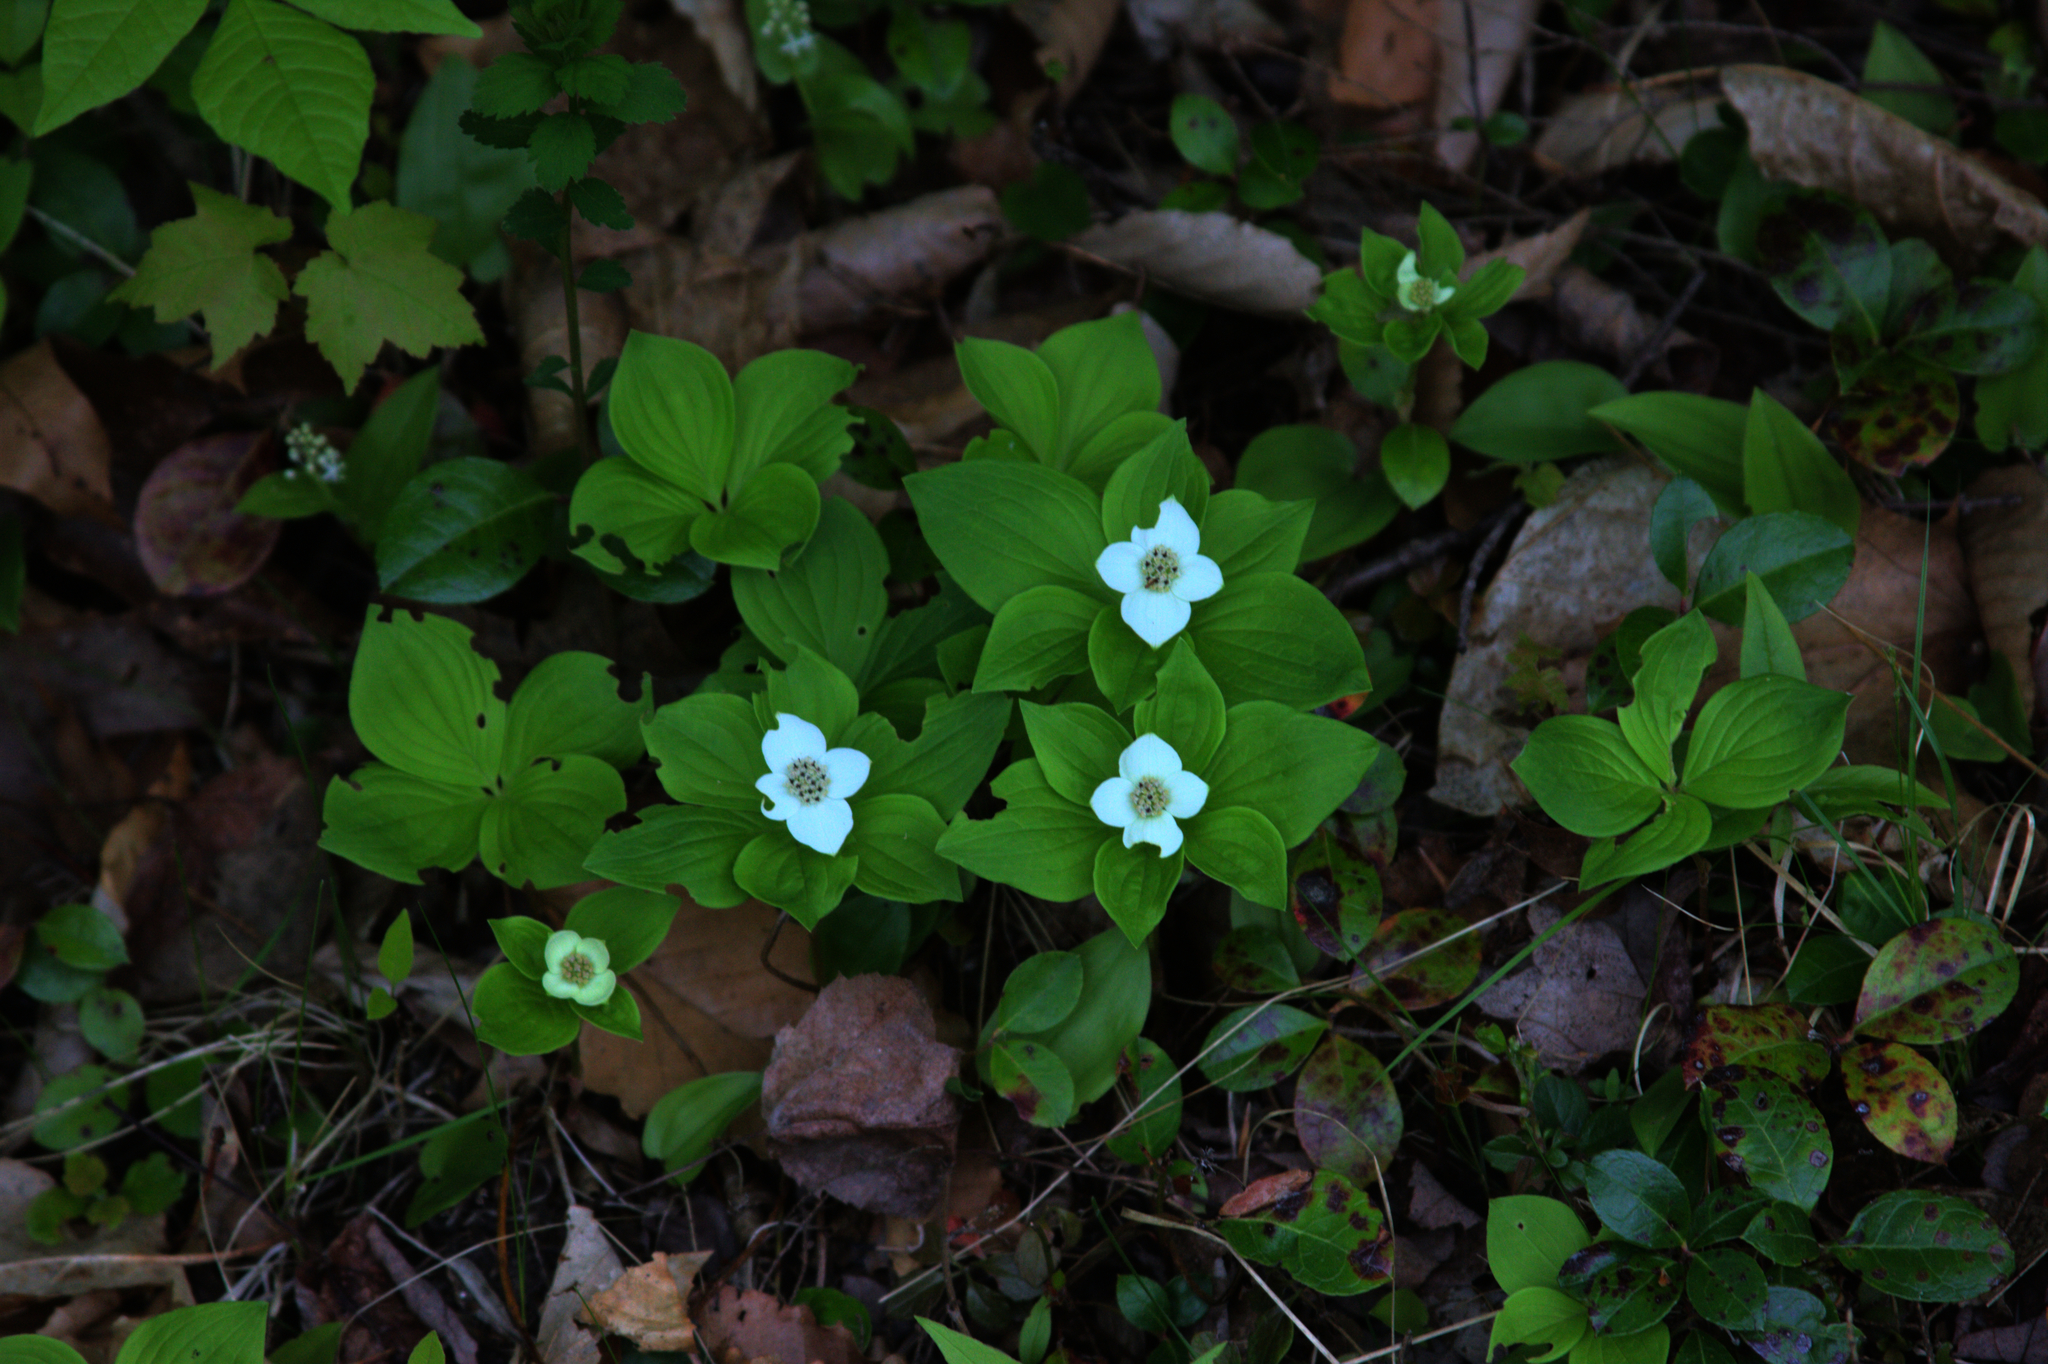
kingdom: Plantae
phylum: Tracheophyta
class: Magnoliopsida
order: Cornales
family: Cornaceae
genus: Cornus
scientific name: Cornus canadensis
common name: Creeping dogwood
